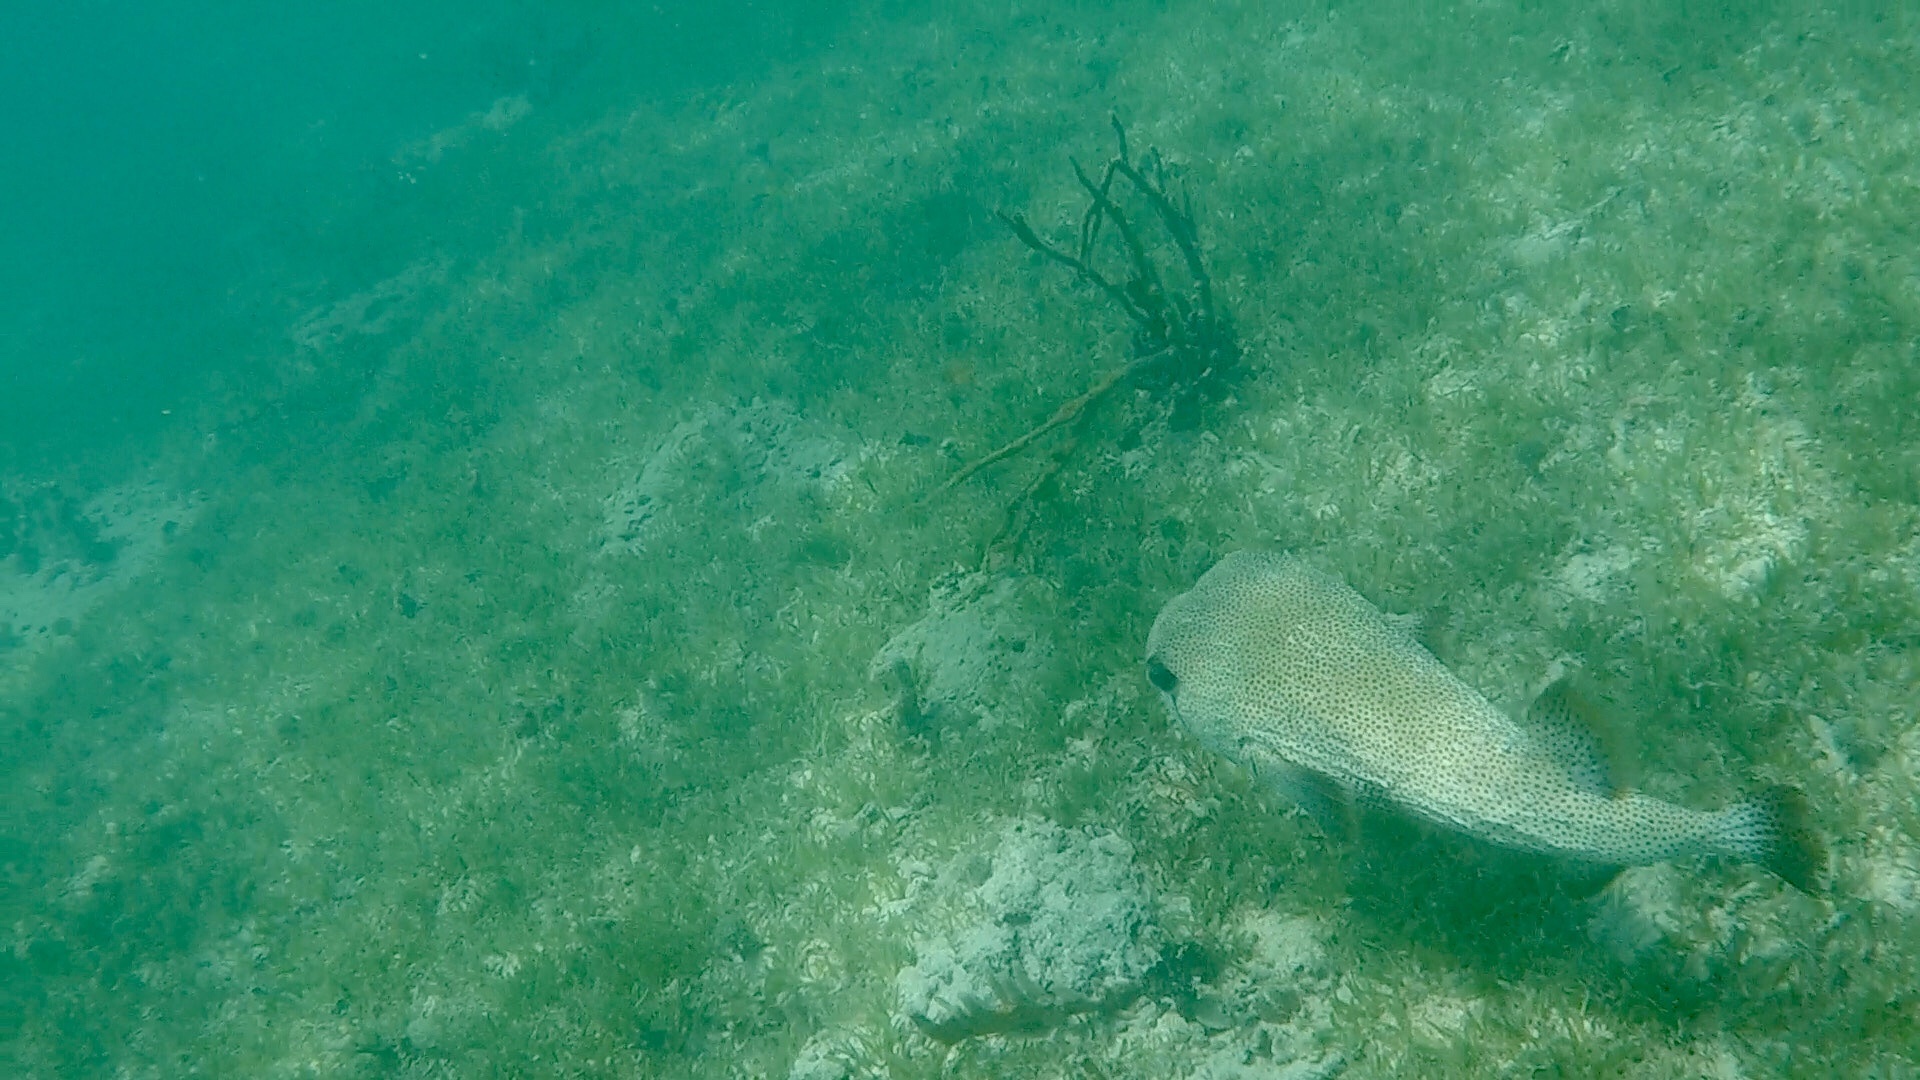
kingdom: Animalia
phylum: Chordata
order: Tetraodontiformes
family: Diodontidae
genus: Diodon
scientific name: Diodon hystrix
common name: Giant porcupinefish
